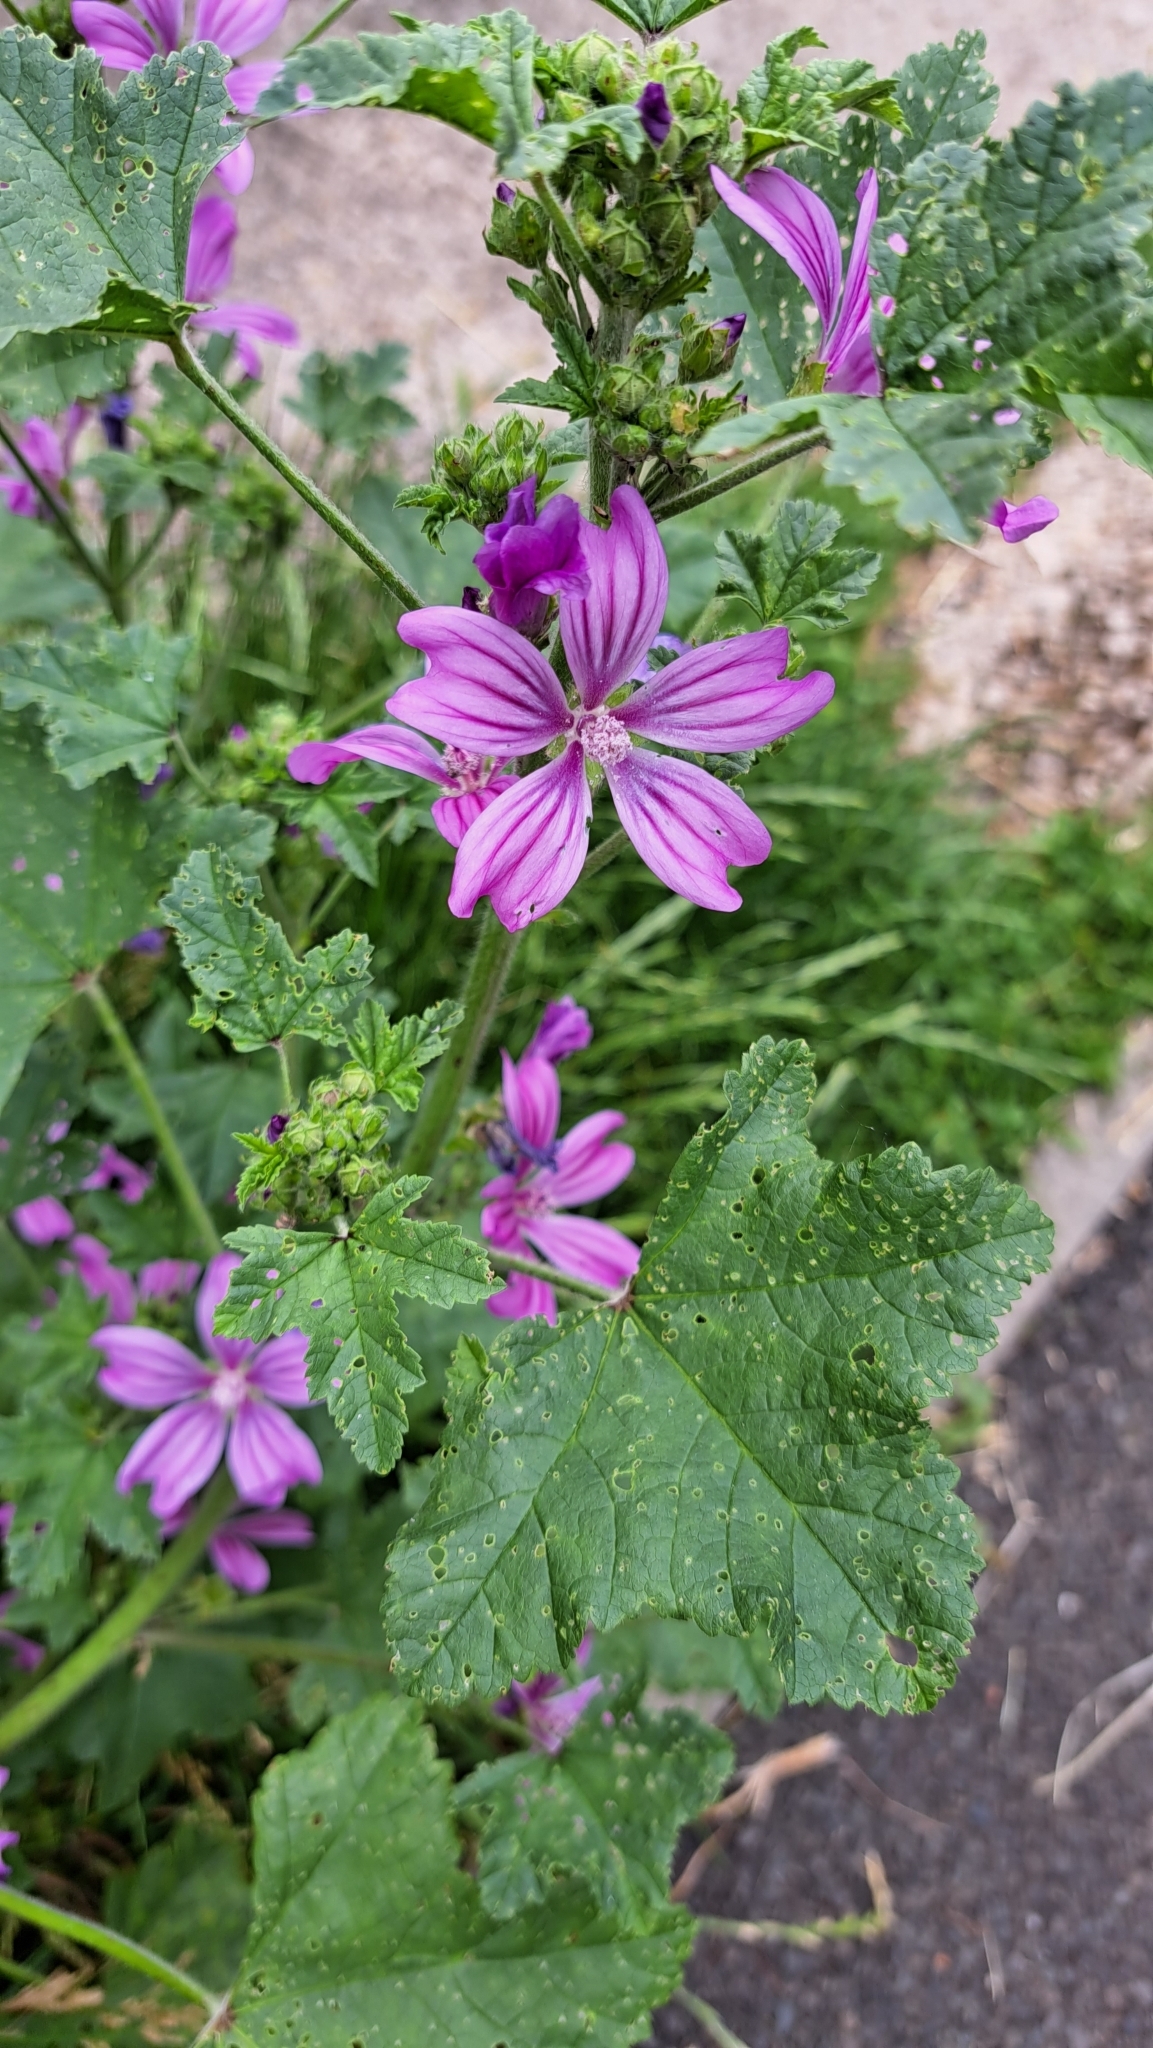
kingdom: Plantae
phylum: Tracheophyta
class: Magnoliopsida
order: Malvales
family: Malvaceae
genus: Malva
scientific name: Malva sylvestris
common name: Common mallow
